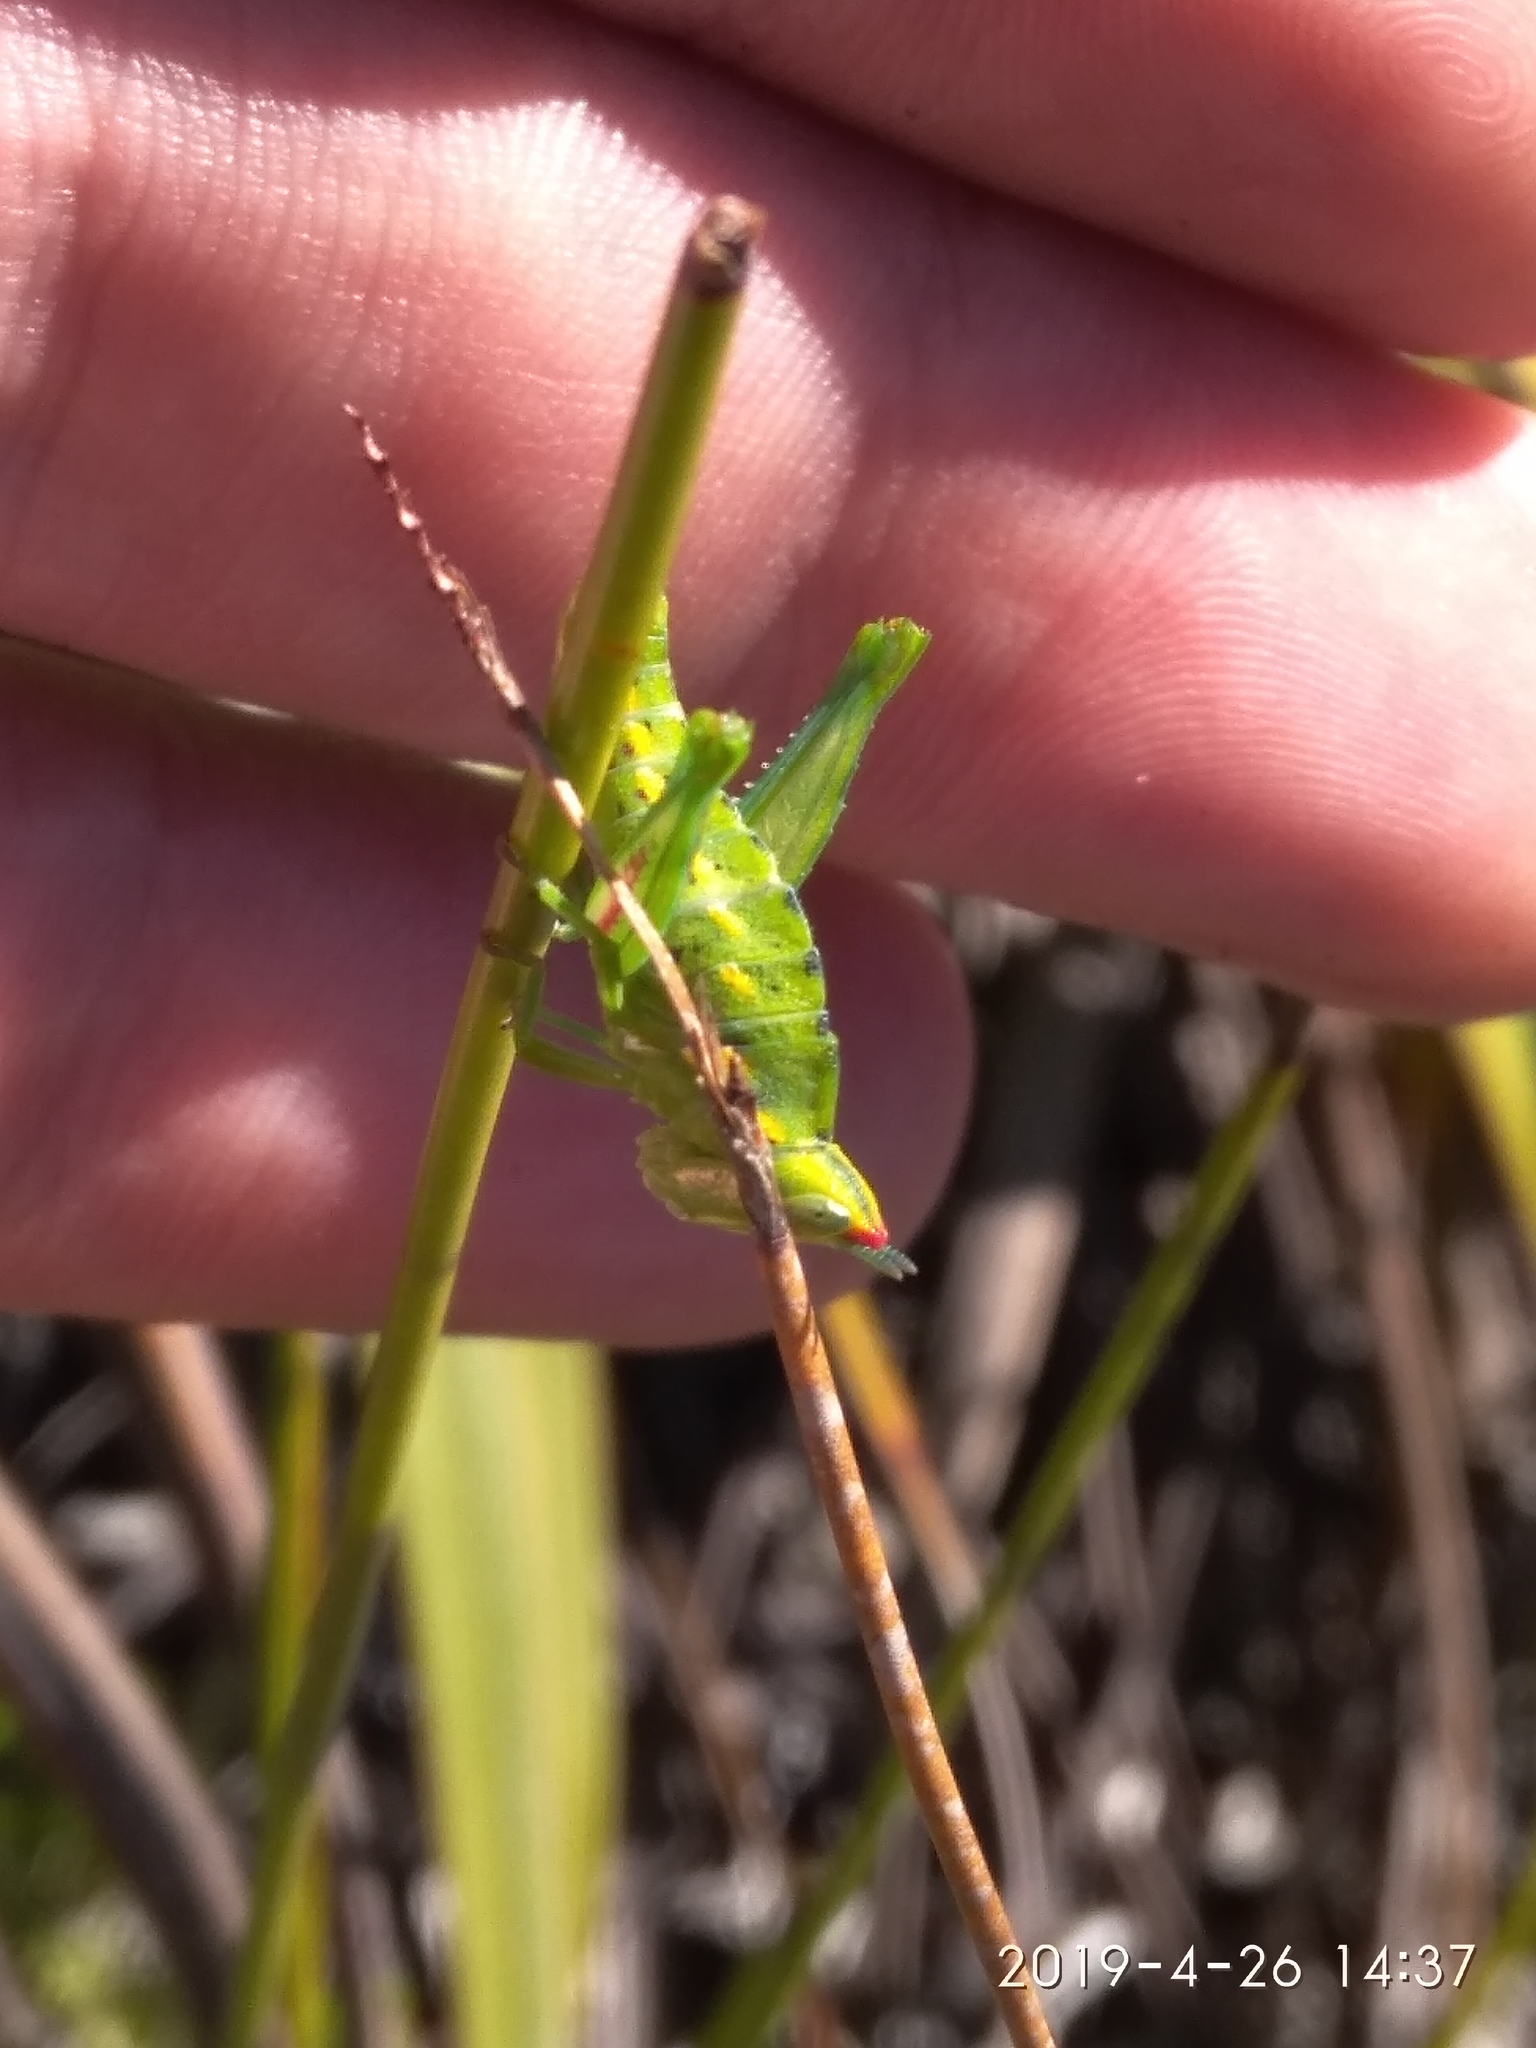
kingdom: Animalia
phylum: Arthropoda
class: Insecta
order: Orthoptera
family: Thericleidae
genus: Thericlesiella
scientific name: Thericlesiella meridionalis
